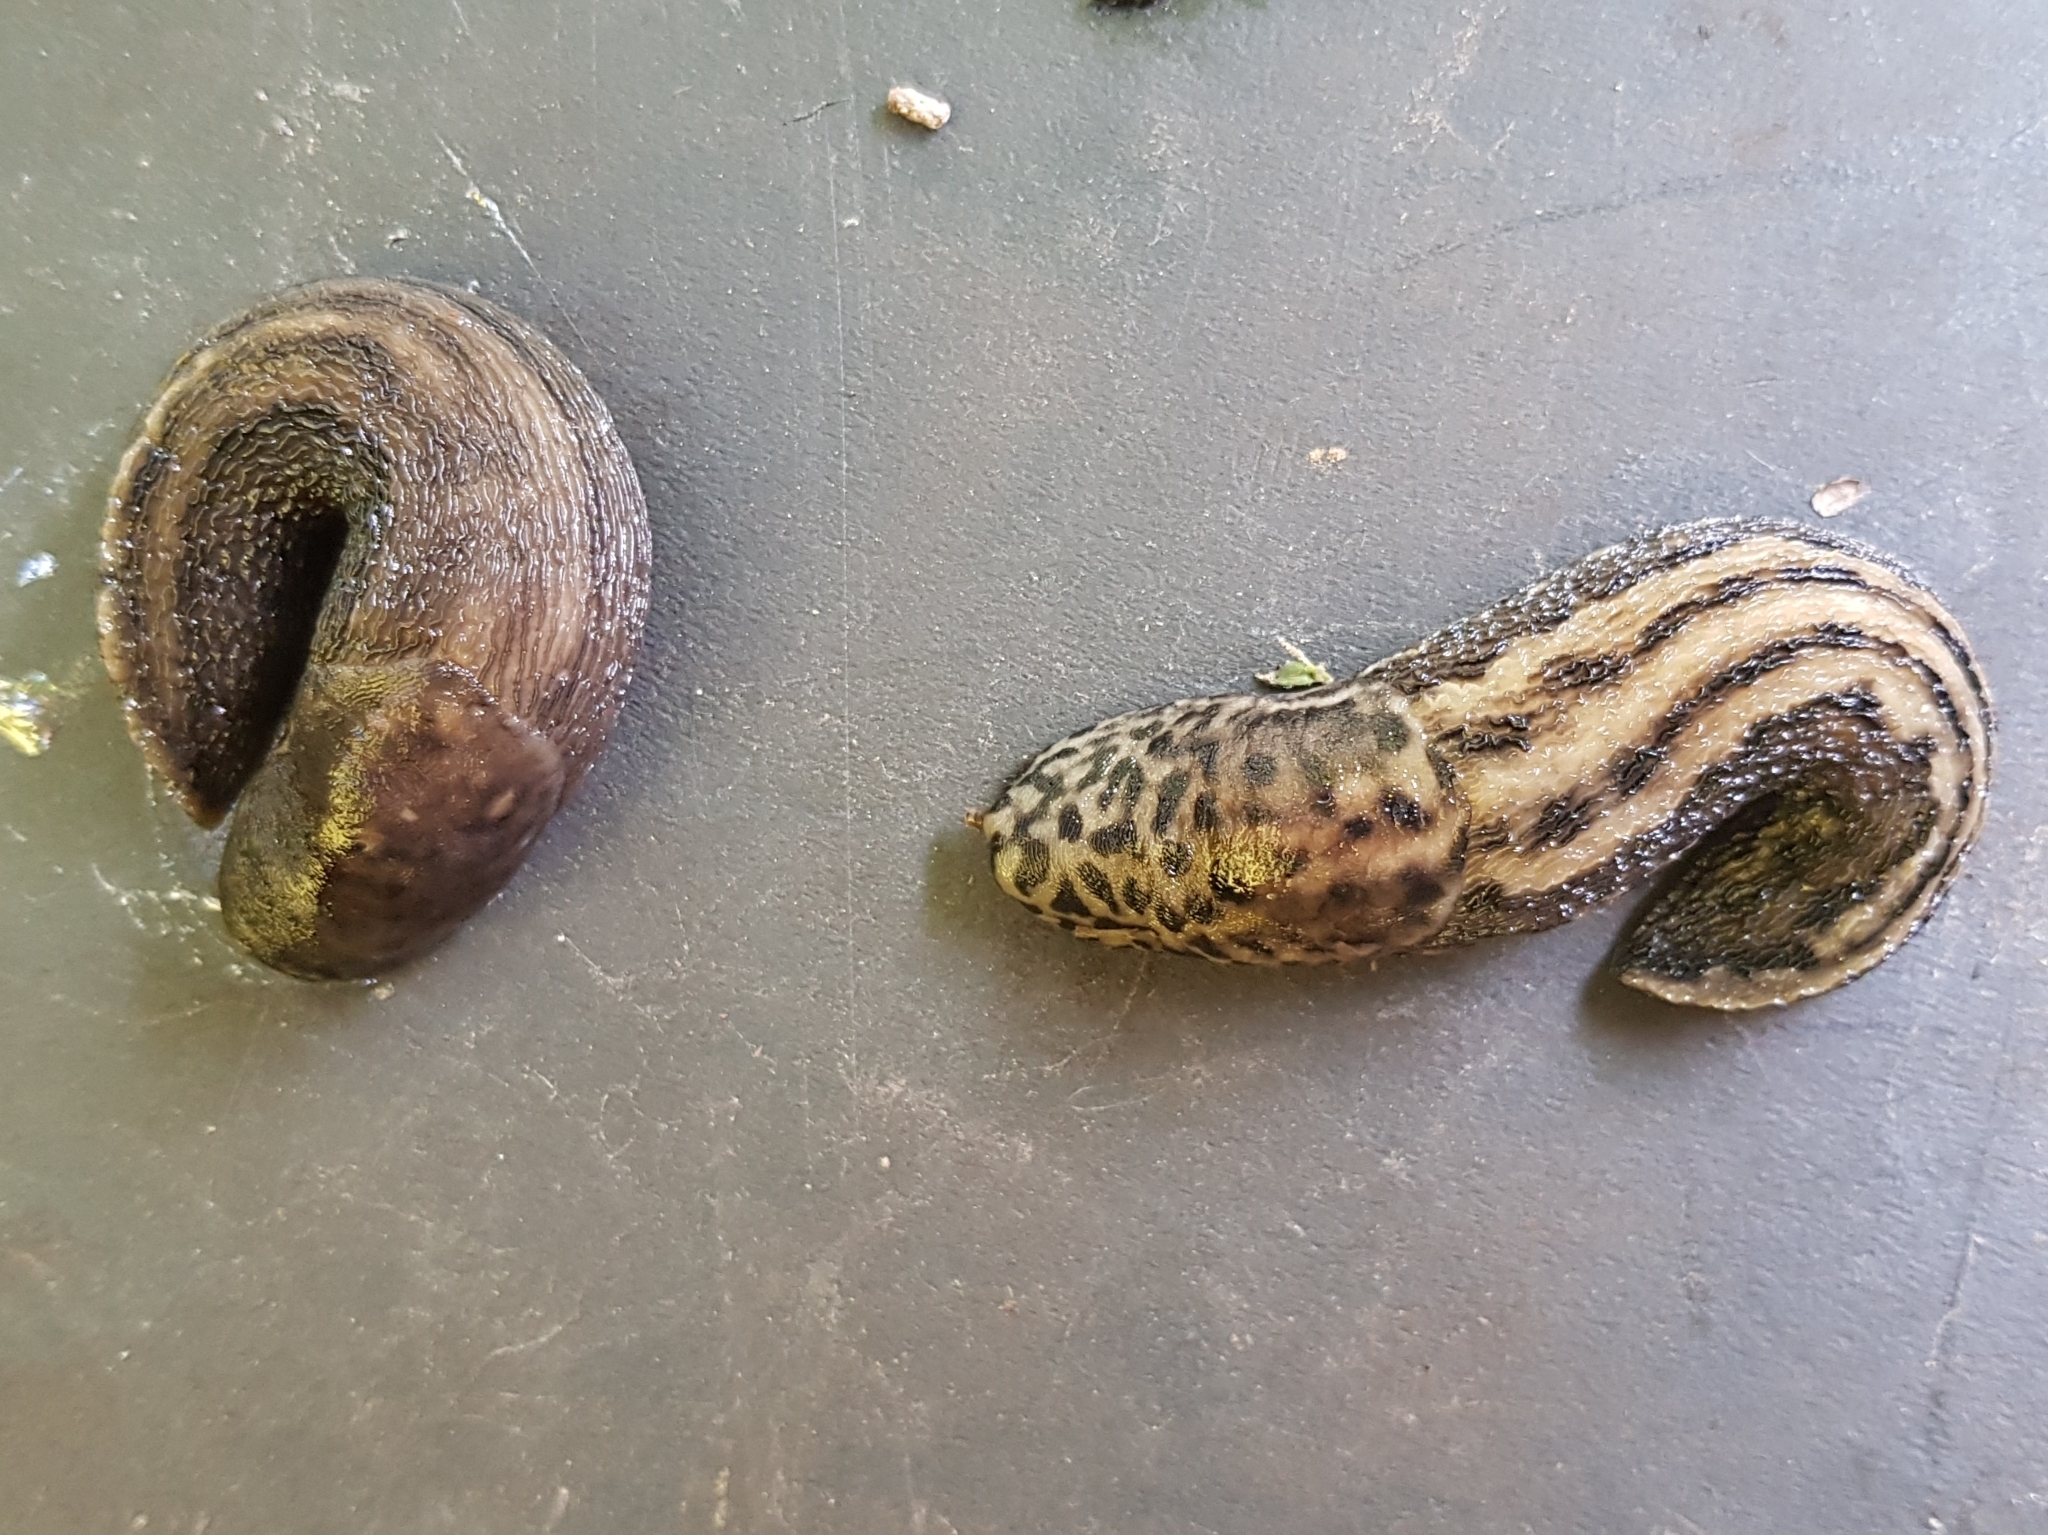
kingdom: Animalia
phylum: Mollusca
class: Gastropoda
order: Stylommatophora
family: Limacidae
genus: Limax
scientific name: Limax maximus
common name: Great grey slug
